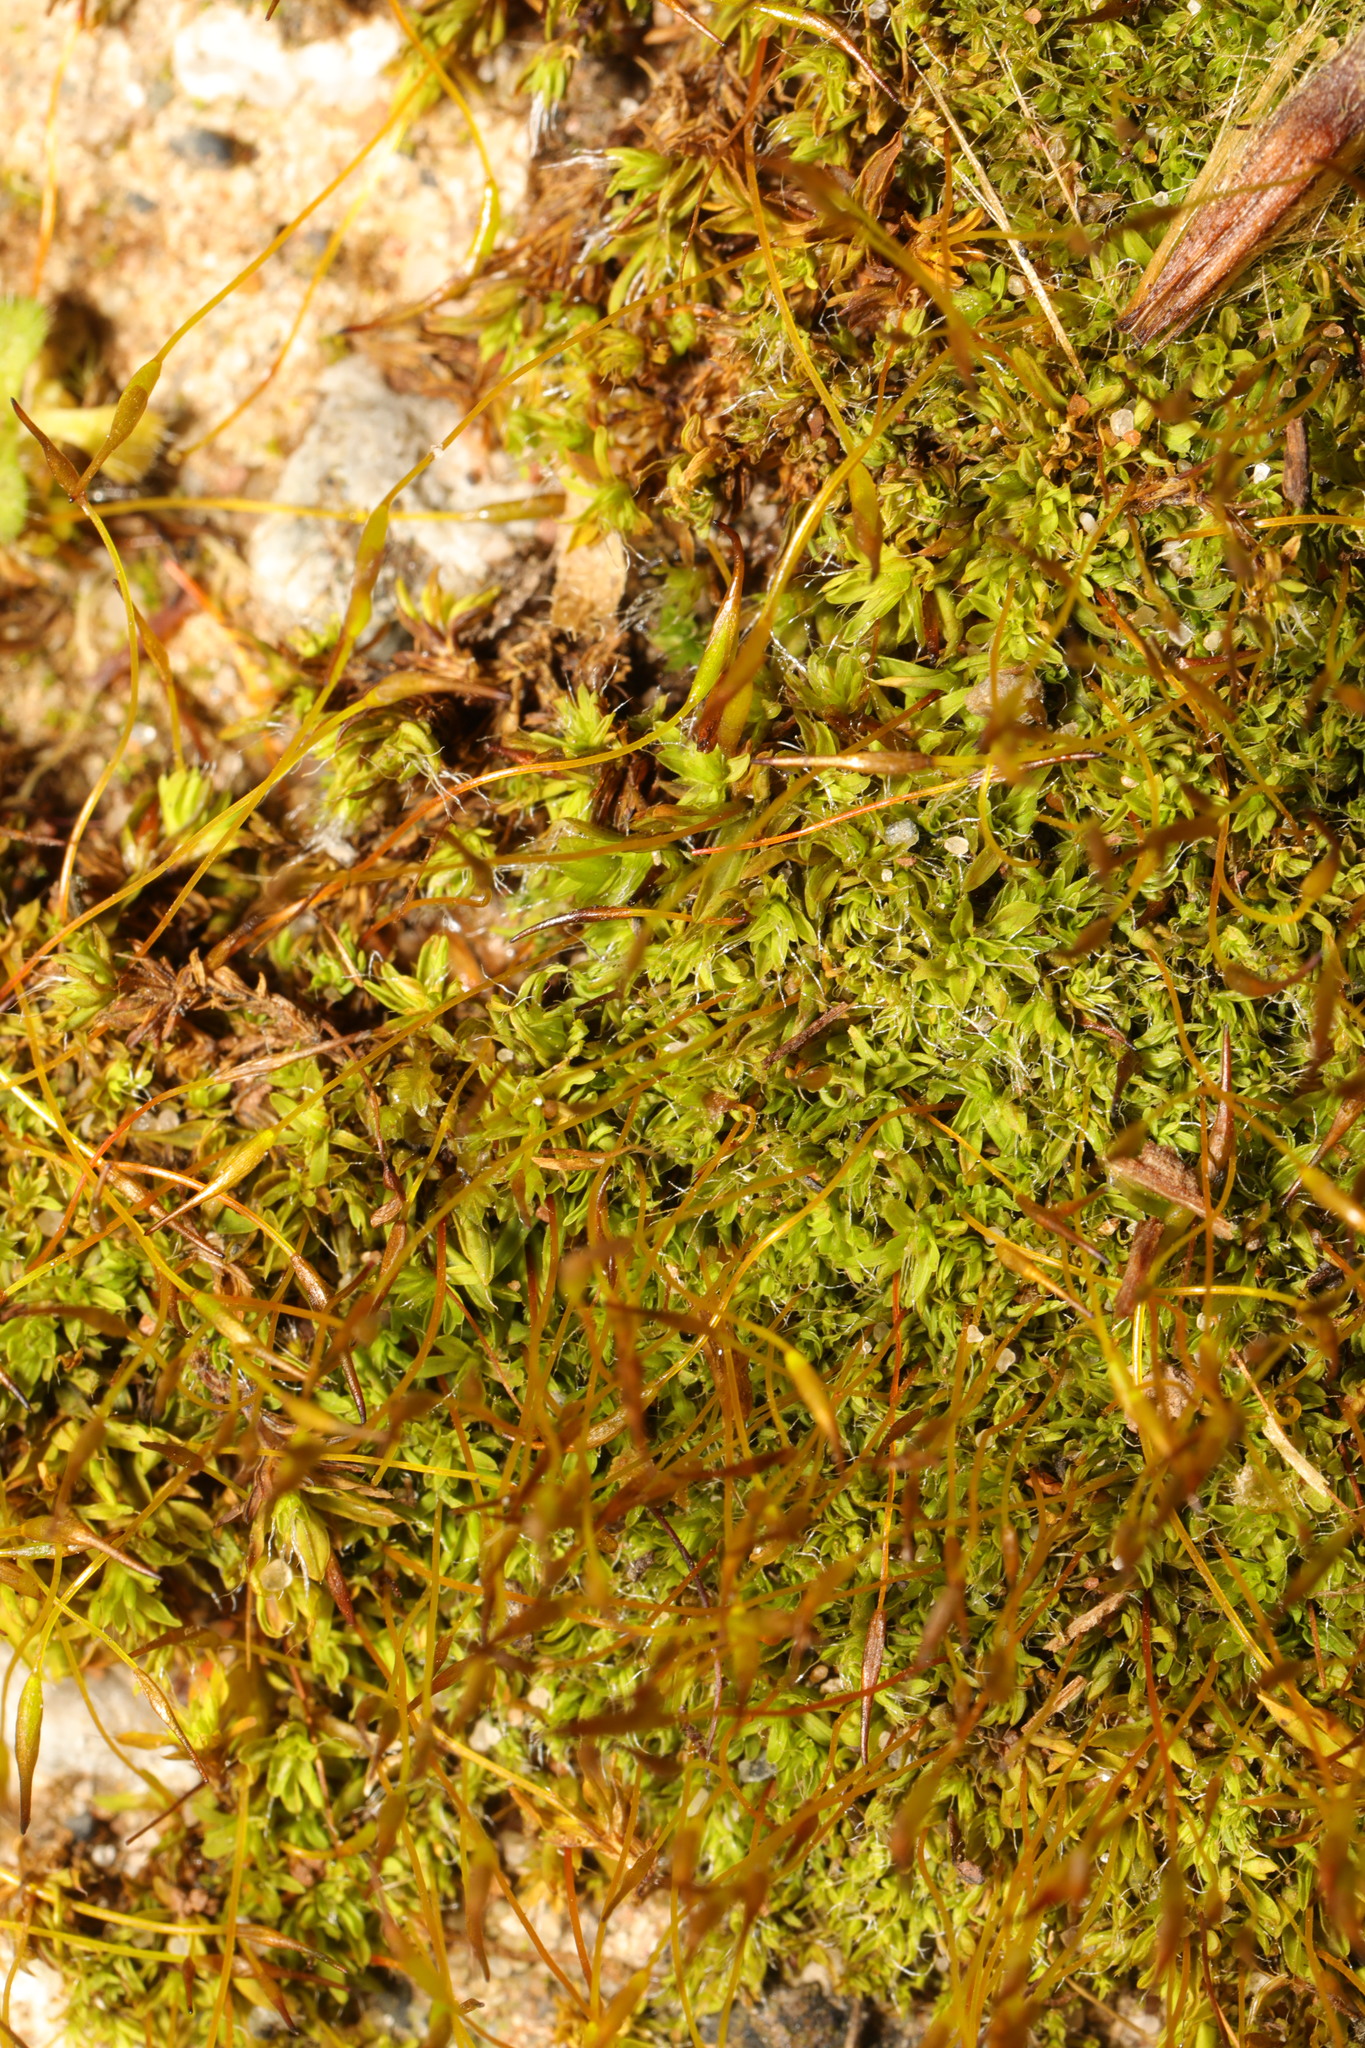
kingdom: Plantae
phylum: Bryophyta
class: Bryopsida
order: Pottiales
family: Pottiaceae
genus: Tortula
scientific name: Tortula muralis
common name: Wall screw-moss
